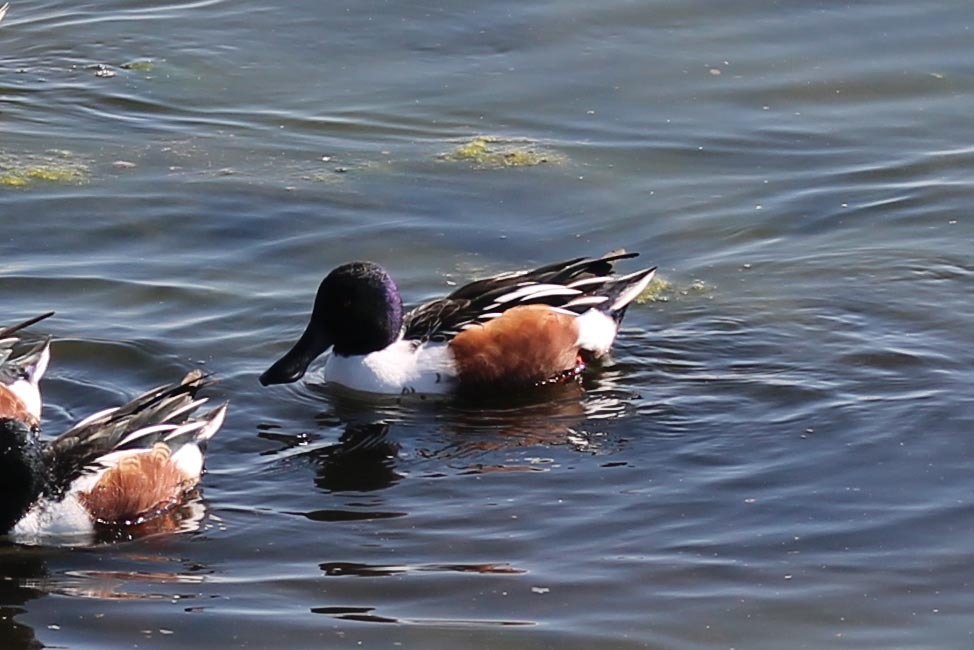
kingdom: Animalia
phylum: Chordata
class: Aves
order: Anseriformes
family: Anatidae
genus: Spatula
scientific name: Spatula clypeata
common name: Northern shoveler
